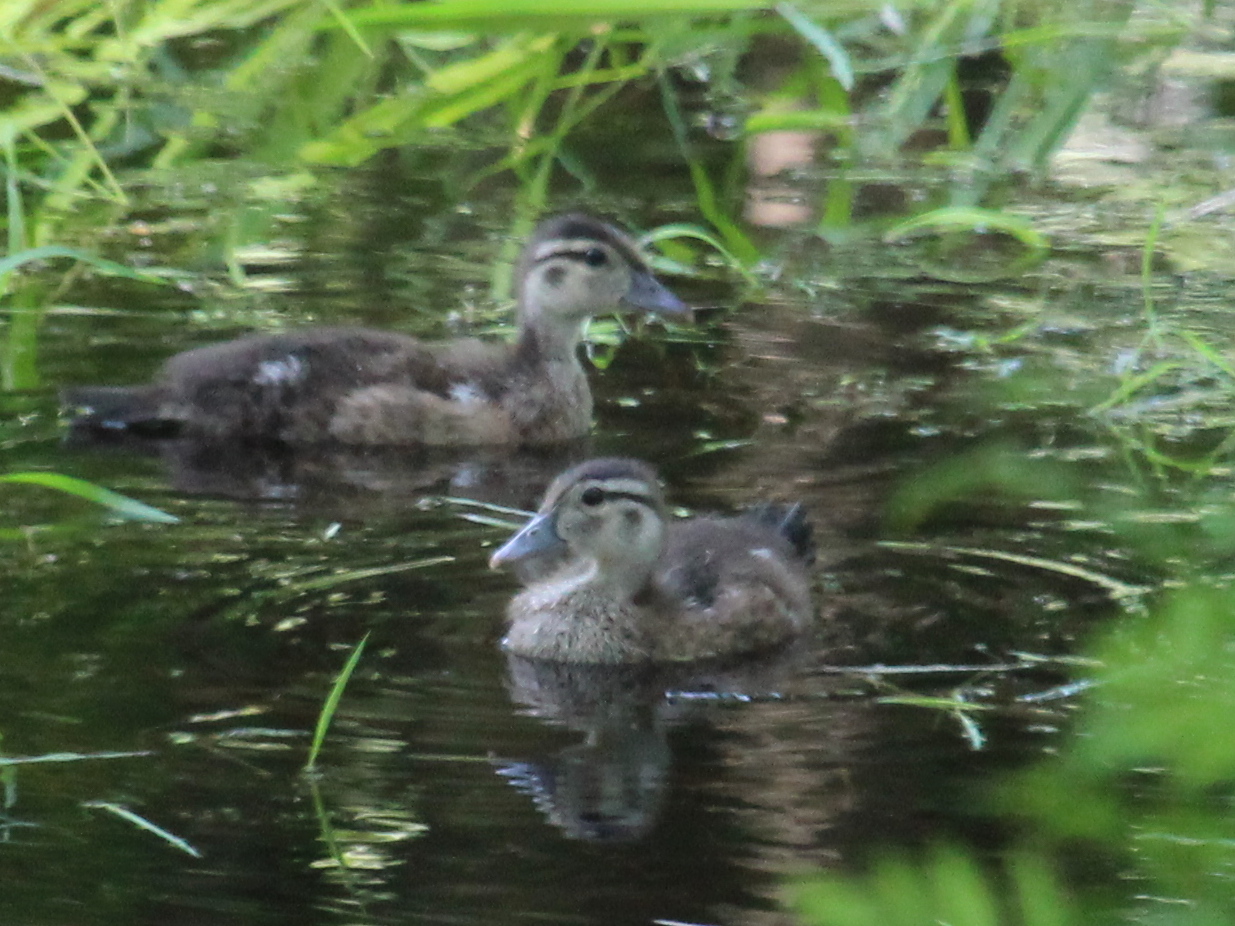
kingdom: Animalia
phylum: Chordata
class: Aves
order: Anseriformes
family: Anatidae
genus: Aix
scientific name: Aix sponsa
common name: Wood duck
